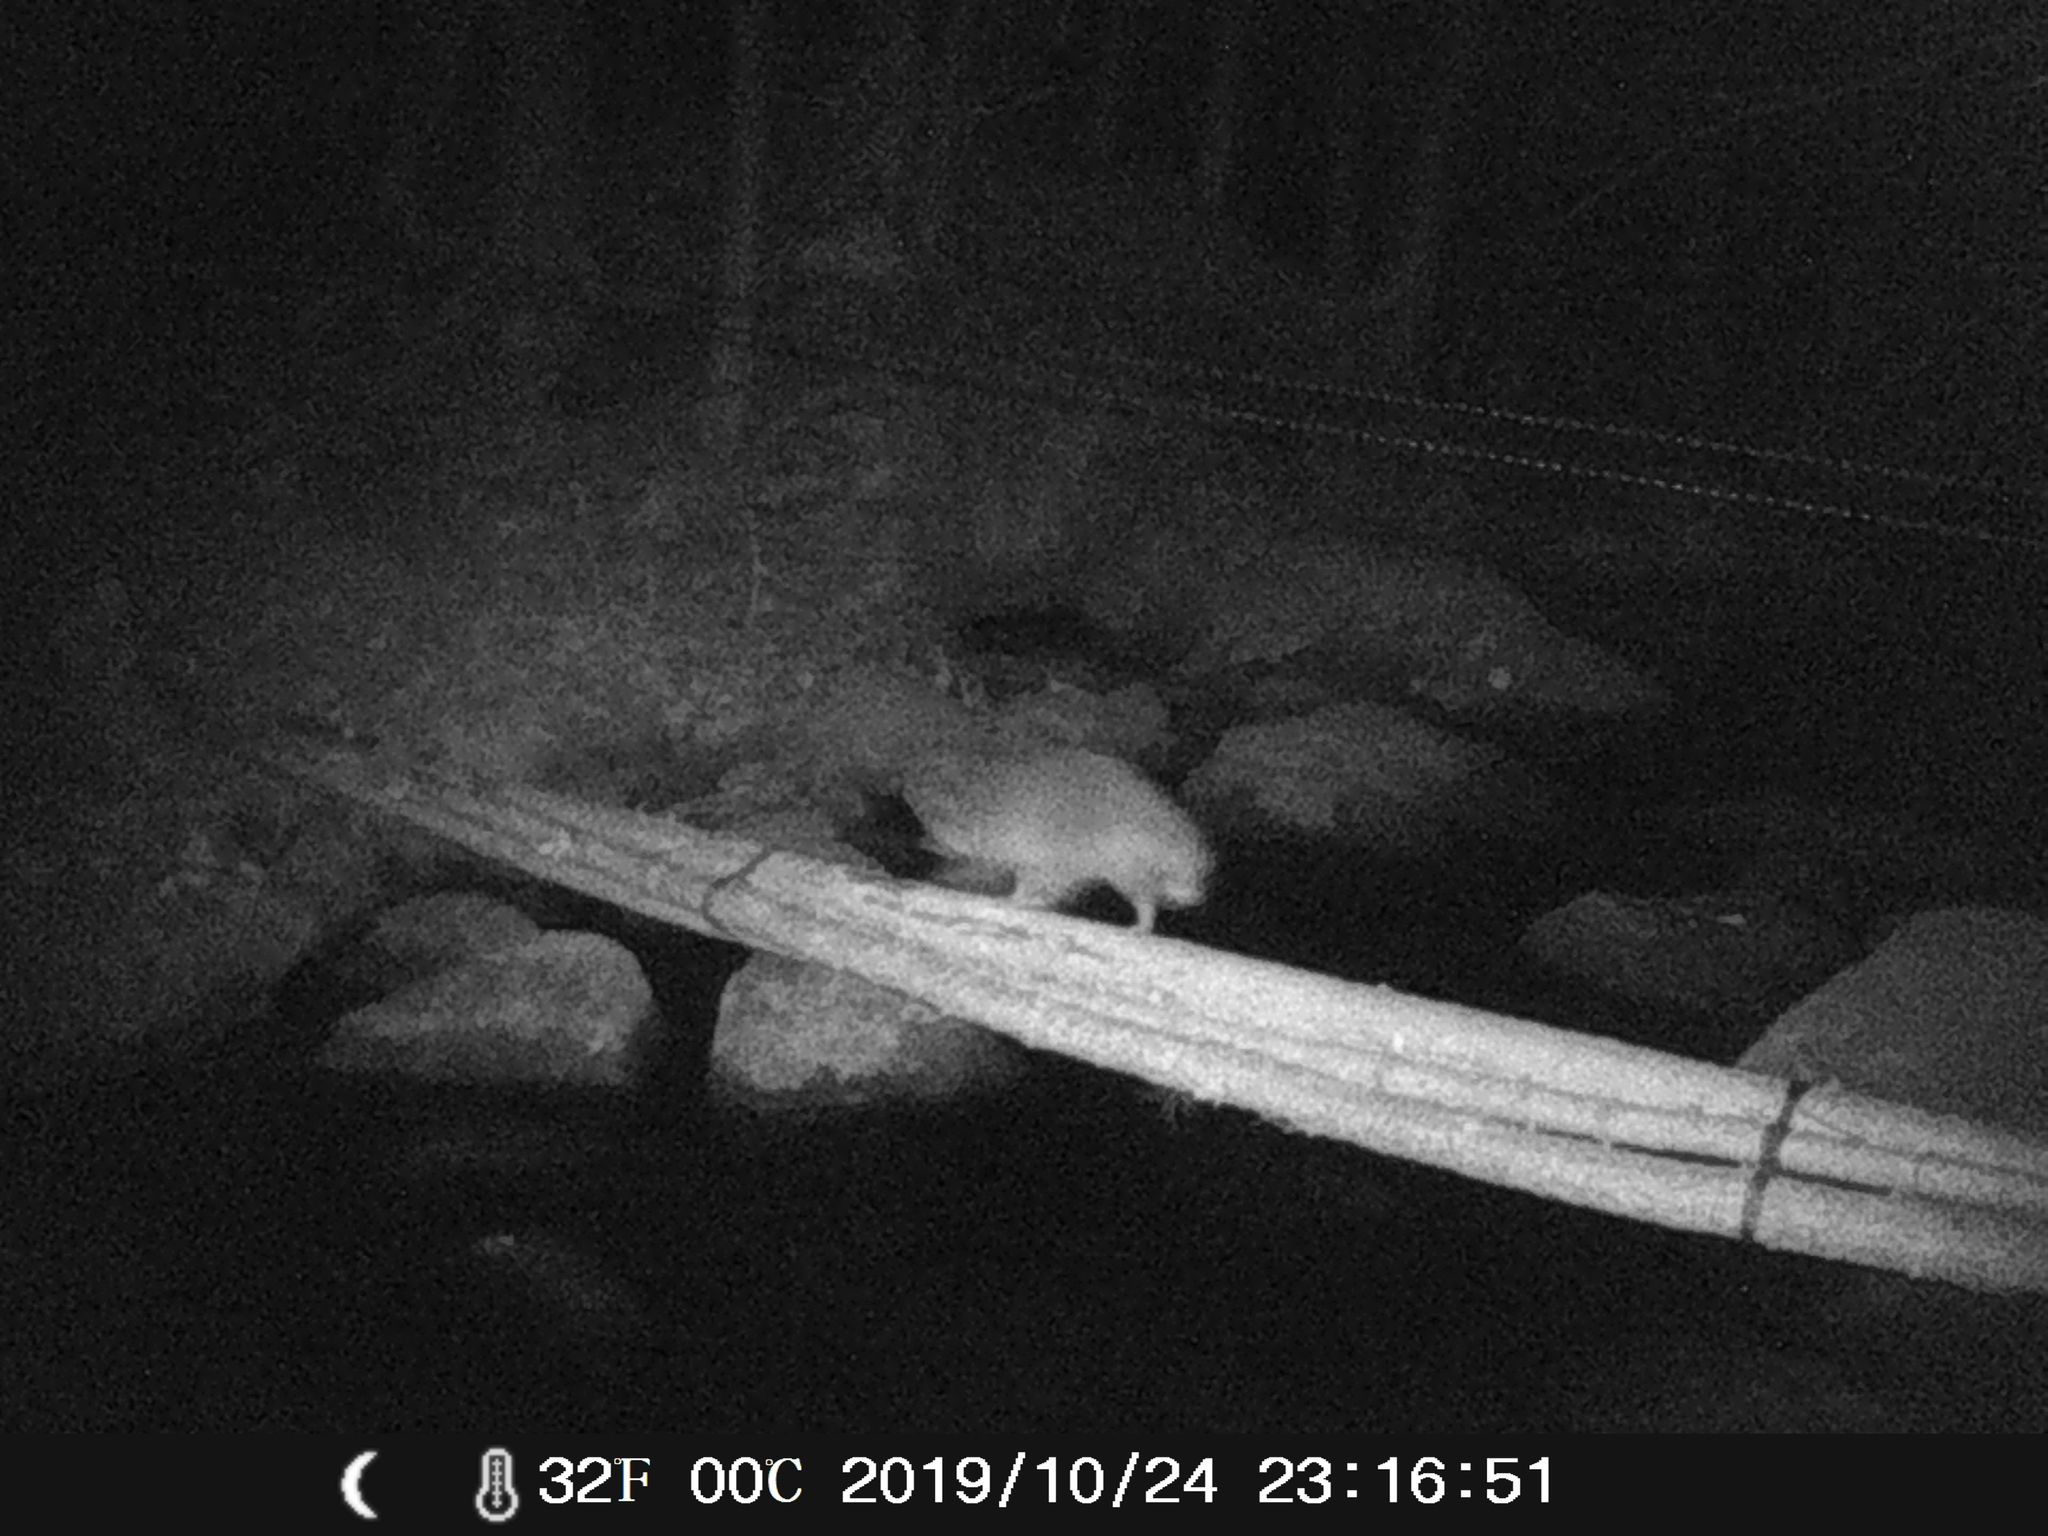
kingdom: Animalia
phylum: Chordata
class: Mammalia
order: Carnivora
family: Procyonidae
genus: Procyon
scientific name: Procyon lotor
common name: Raccoon
